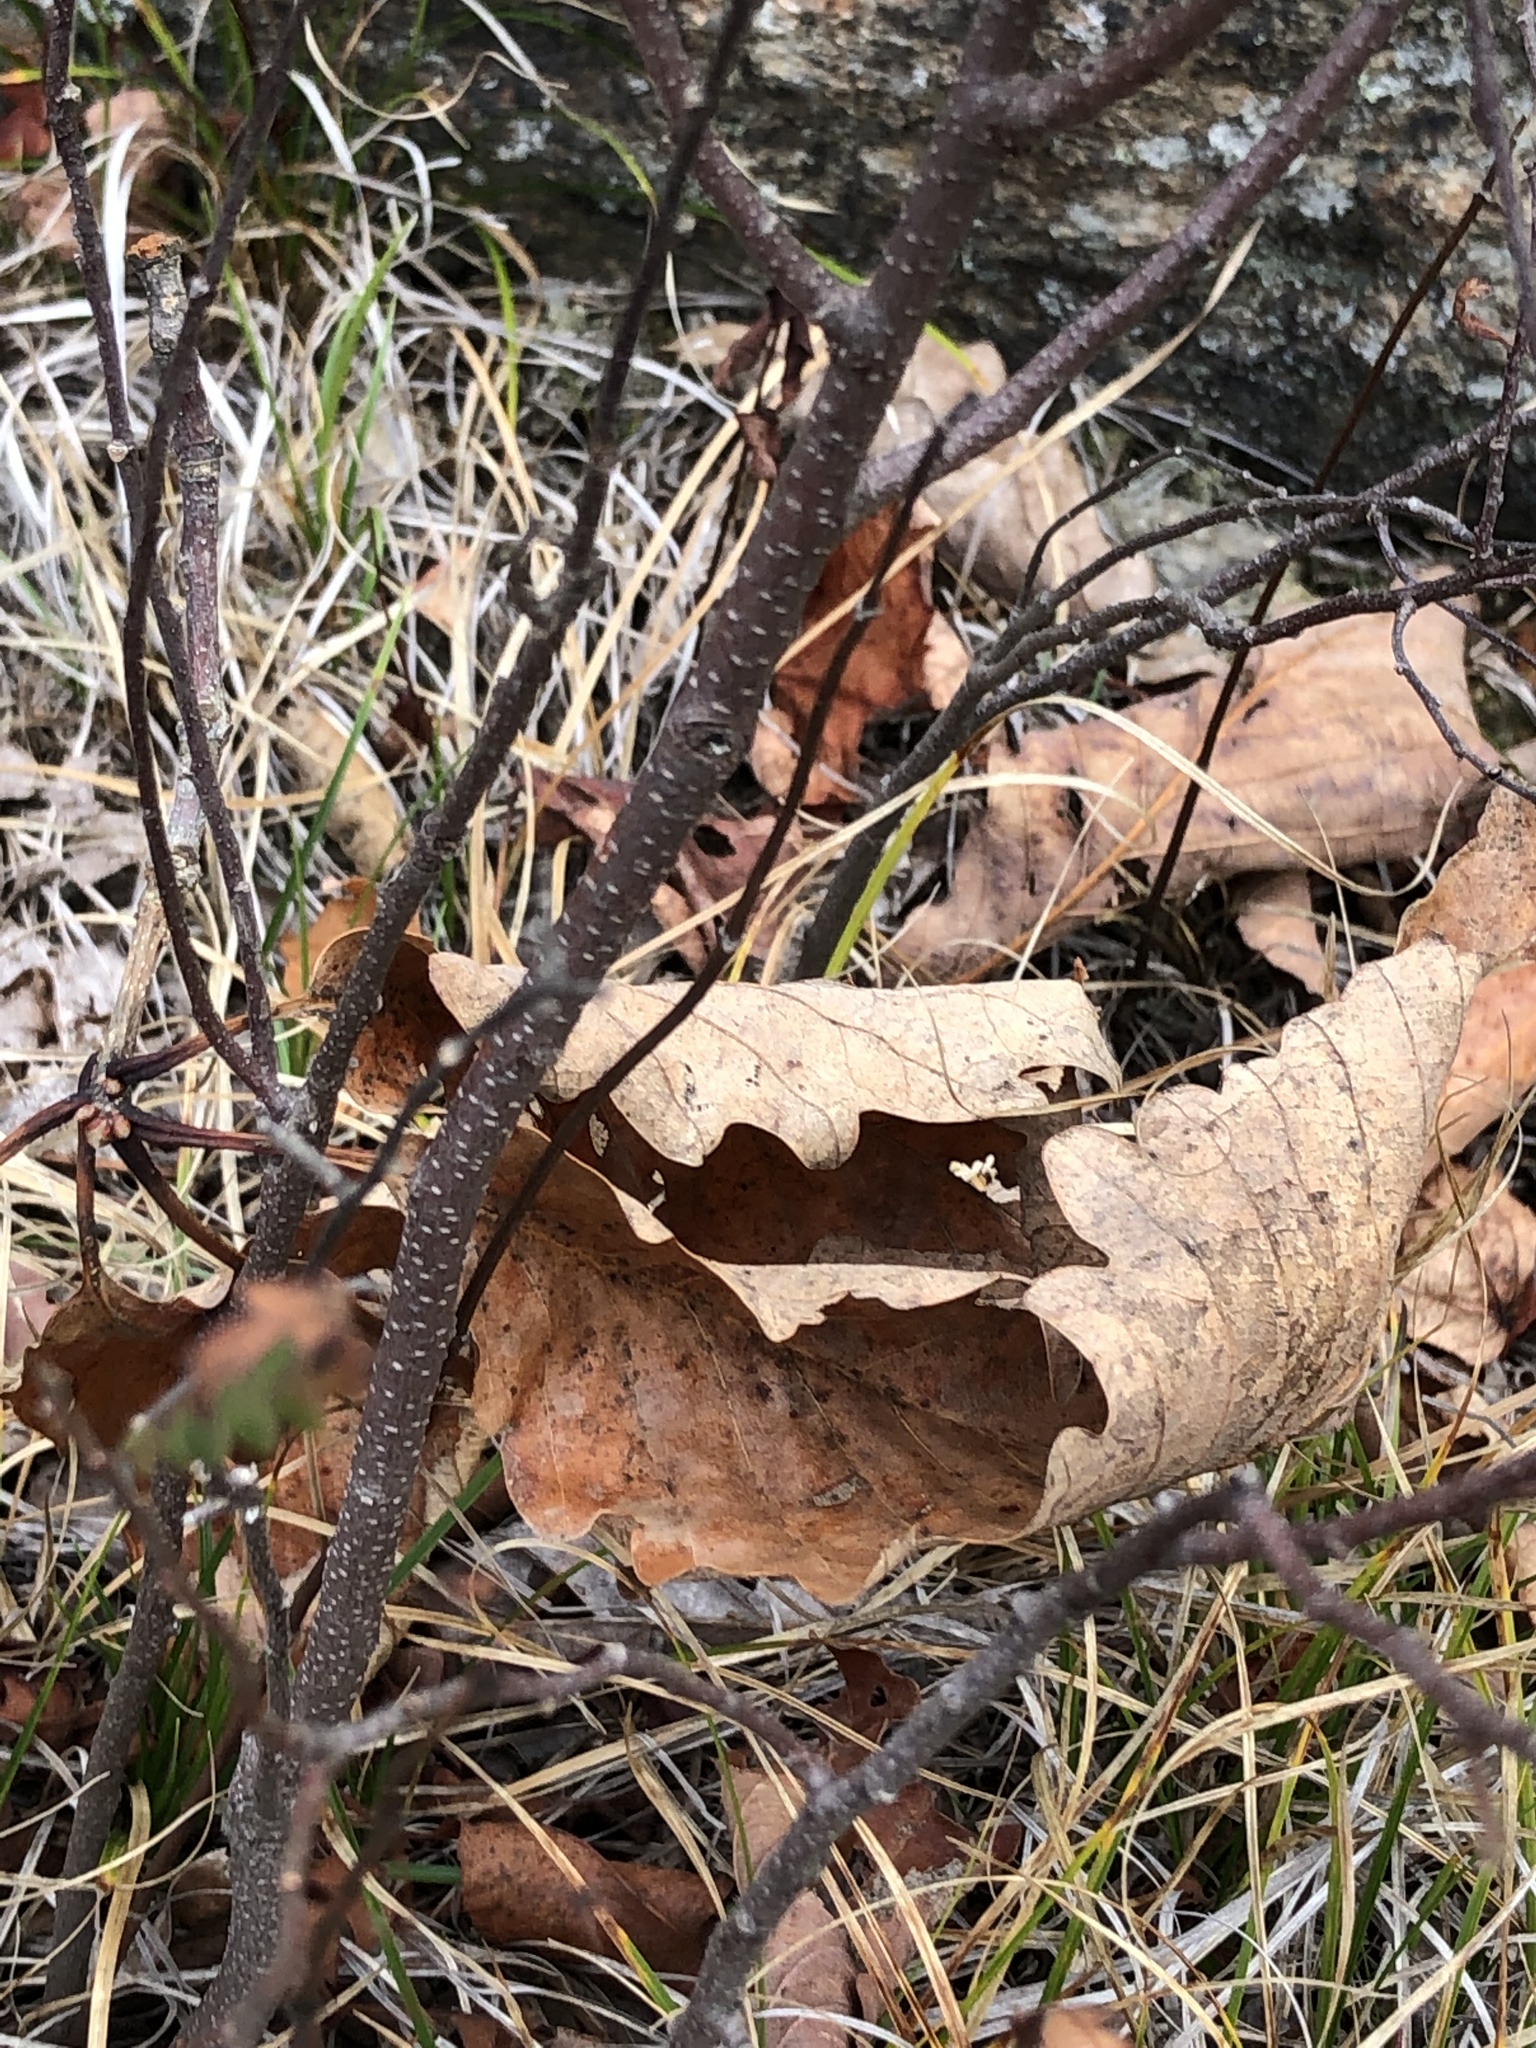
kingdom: Plantae
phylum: Tracheophyta
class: Magnoliopsida
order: Fagales
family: Myricaceae
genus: Comptonia
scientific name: Comptonia peregrina
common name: Sweet-fern
